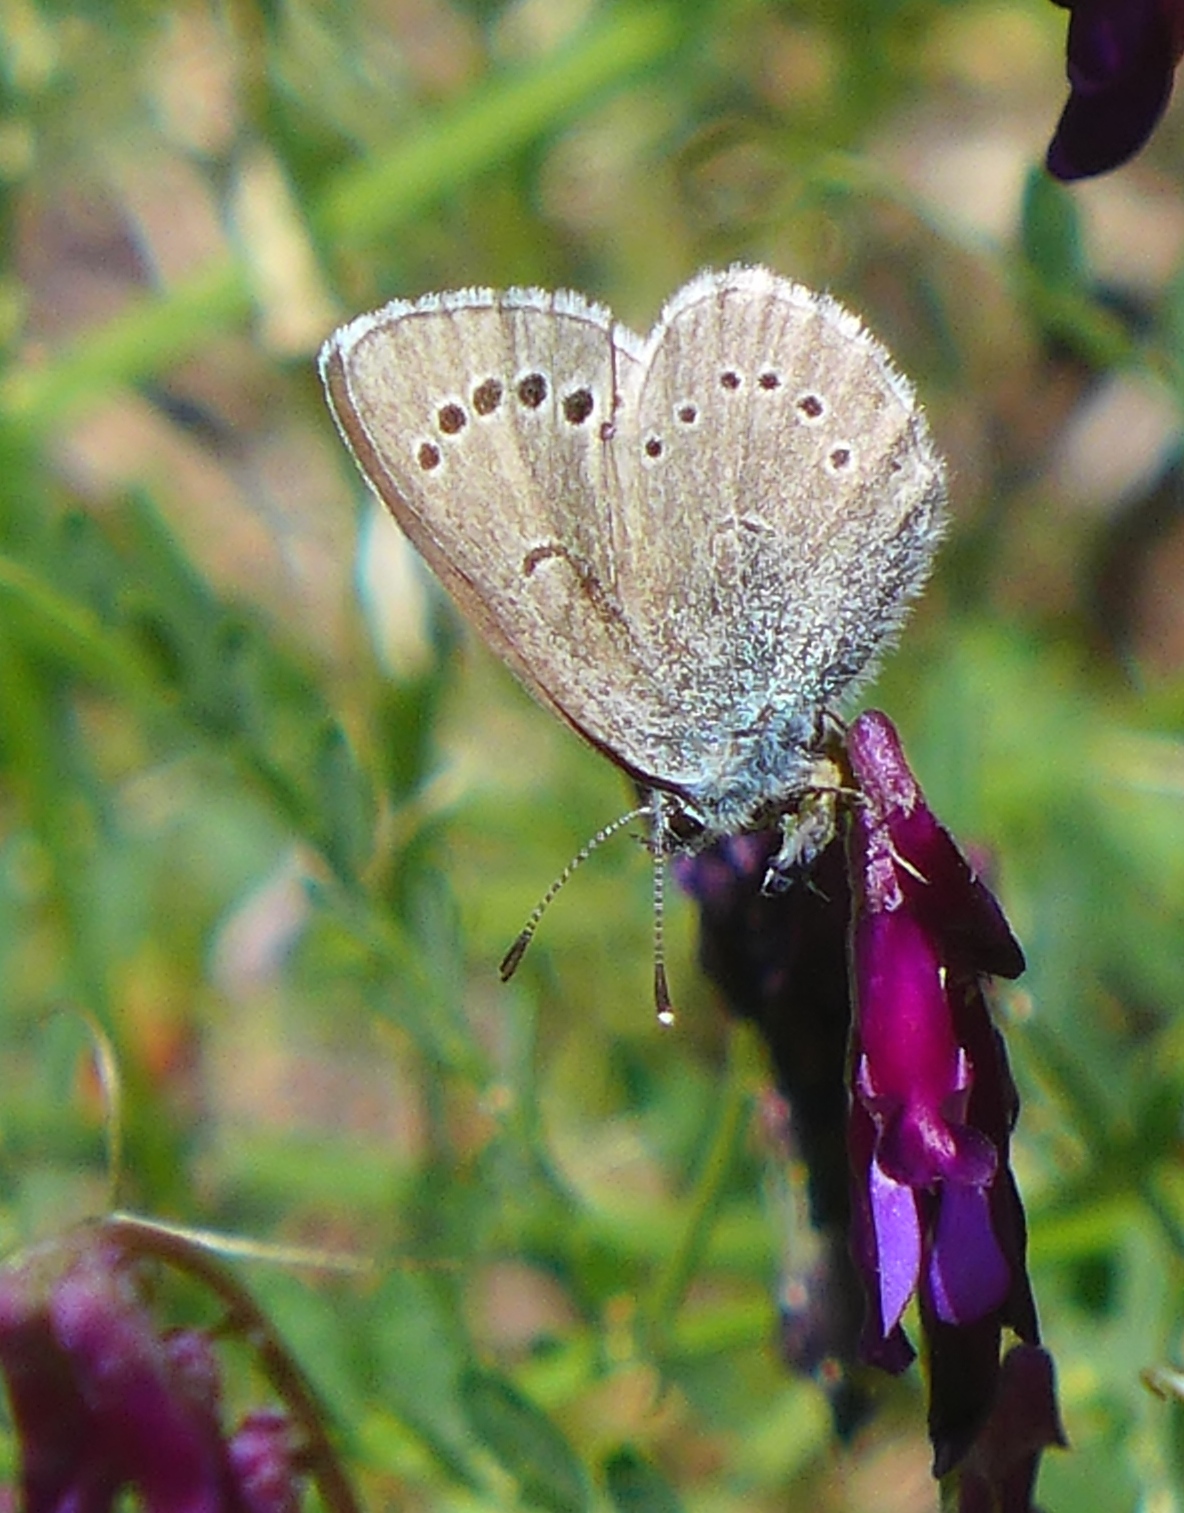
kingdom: Animalia
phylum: Arthropoda
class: Insecta
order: Lepidoptera
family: Lycaenidae
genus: Glaucopsyche
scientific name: Glaucopsyche lygdamus
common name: Silvery blue
